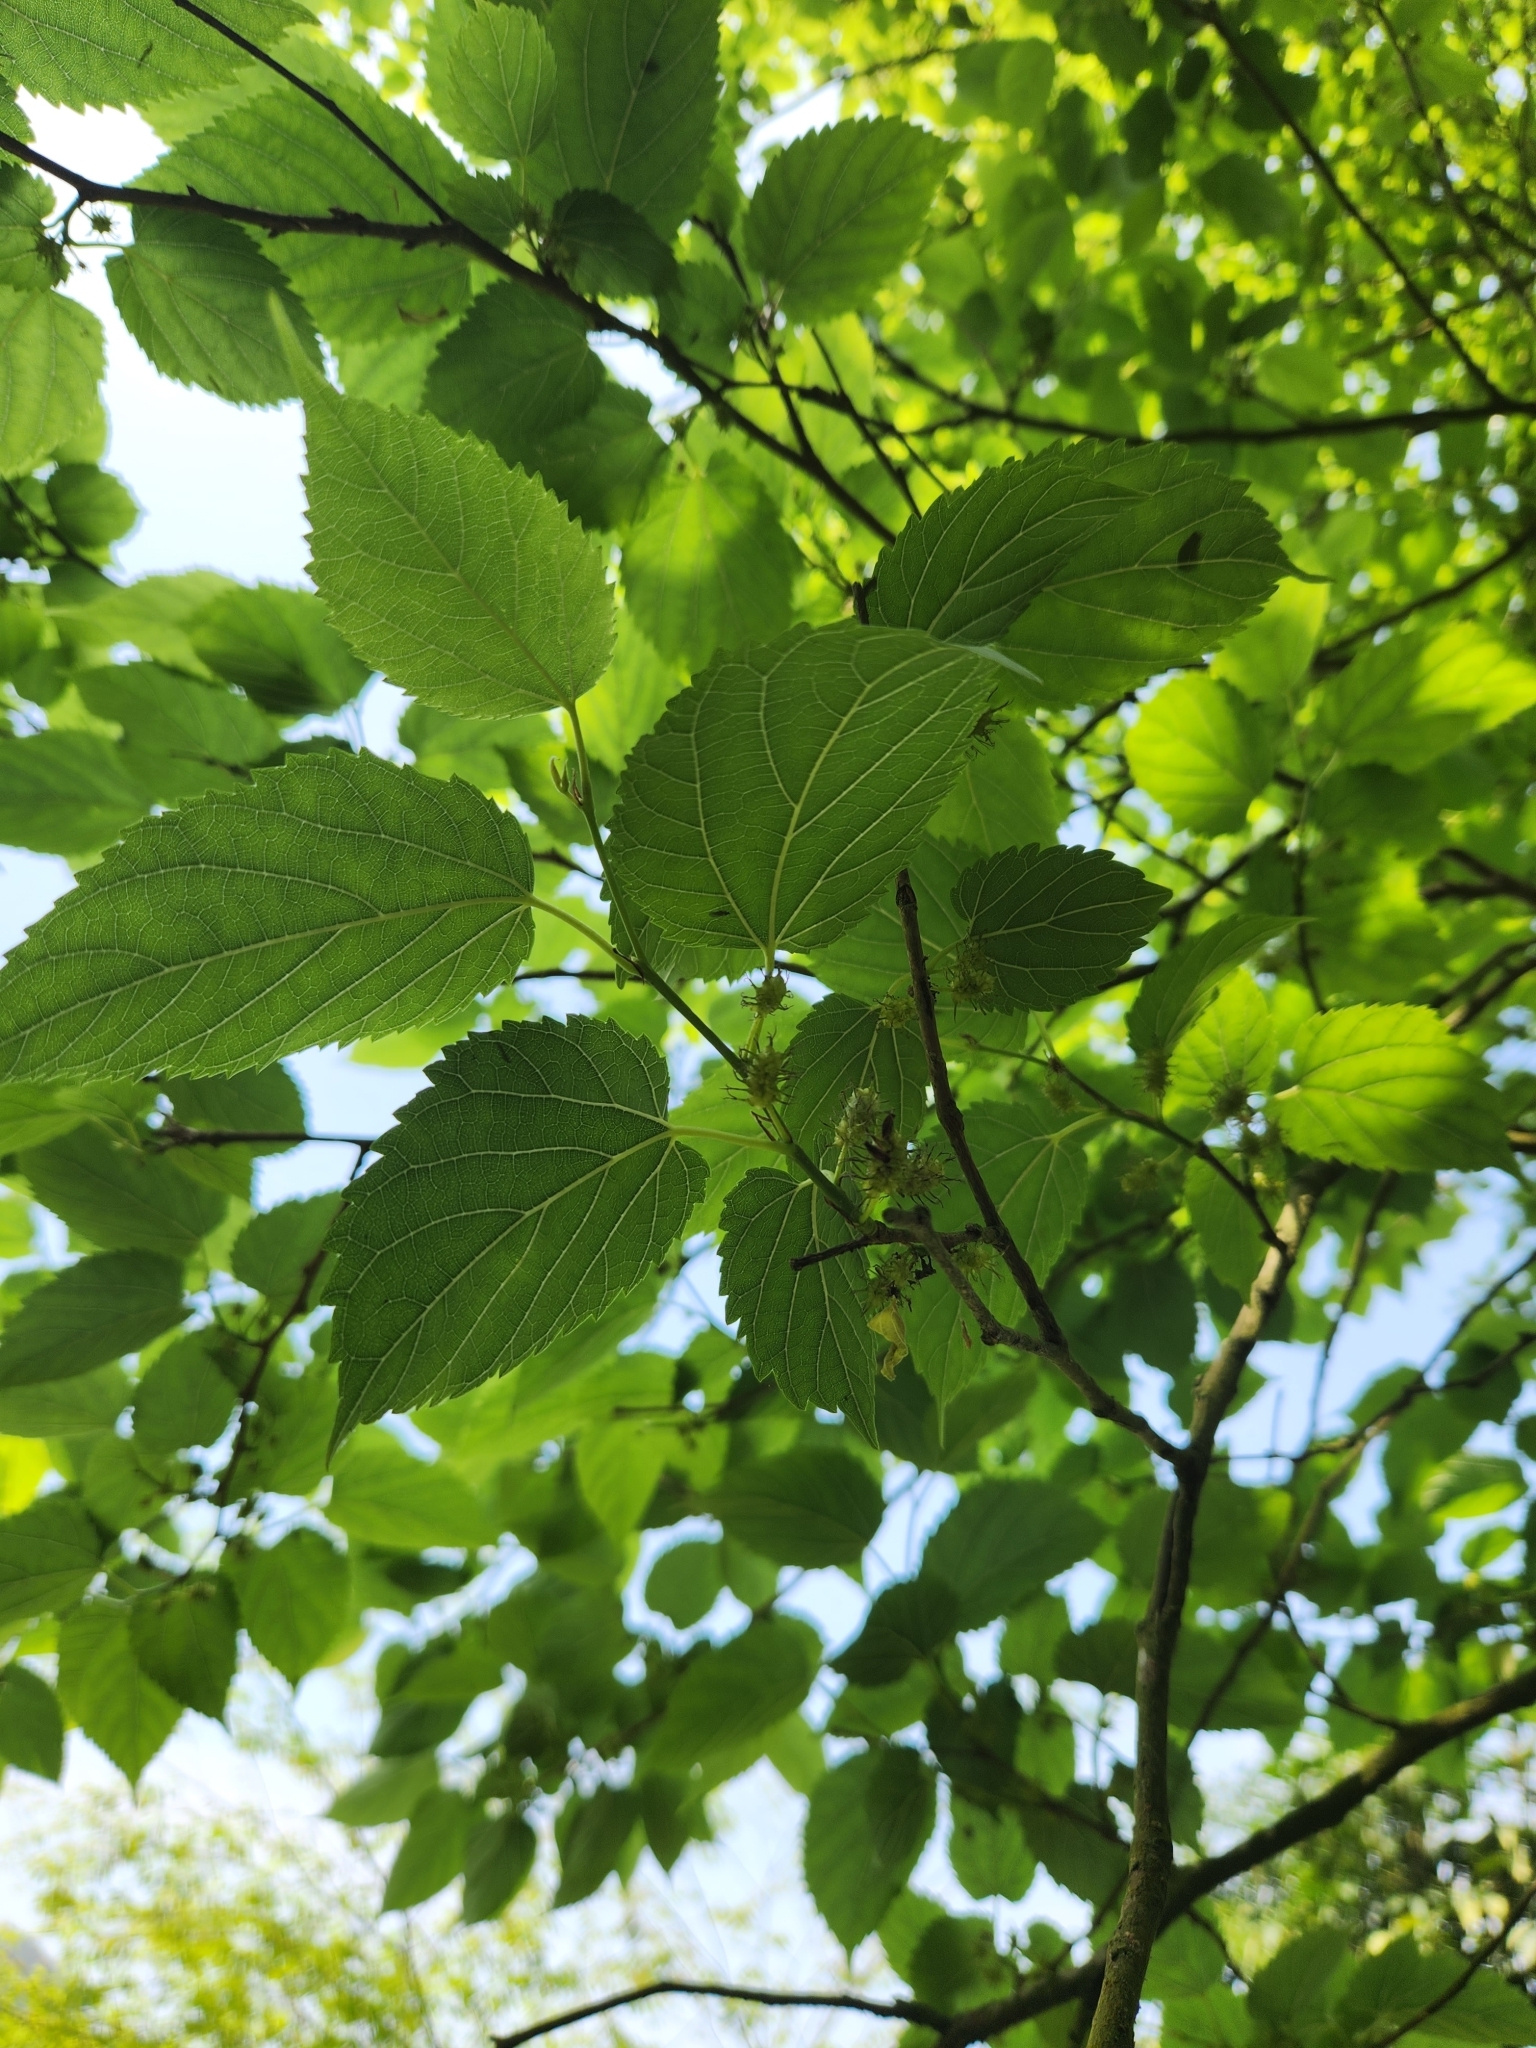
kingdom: Plantae
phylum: Tracheophyta
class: Magnoliopsida
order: Rosales
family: Moraceae
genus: Morus
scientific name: Morus indica
